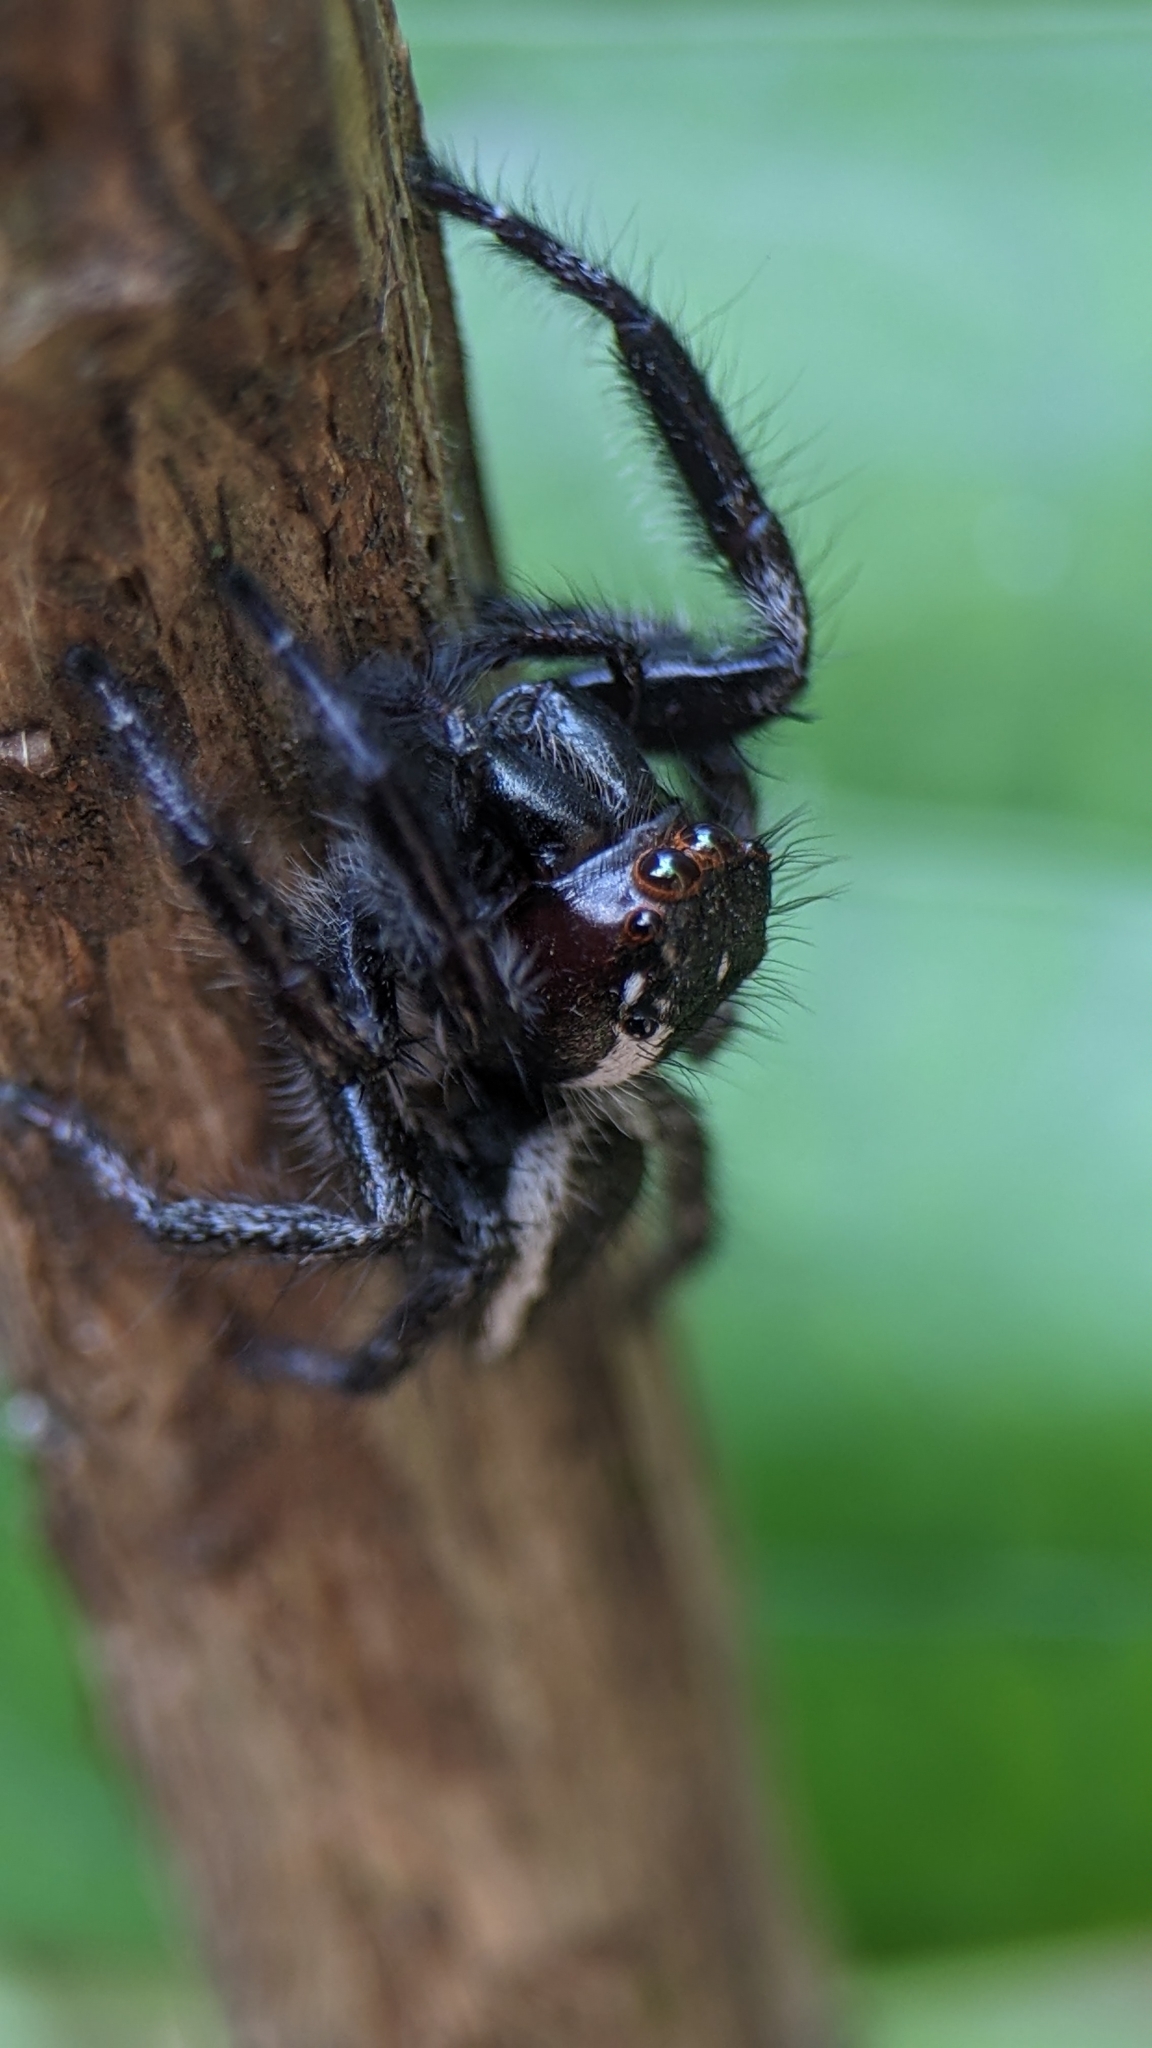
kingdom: Animalia
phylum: Arthropoda
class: Arachnida
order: Araneae
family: Salticidae
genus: Carrhotus
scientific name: Carrhotus viduus
